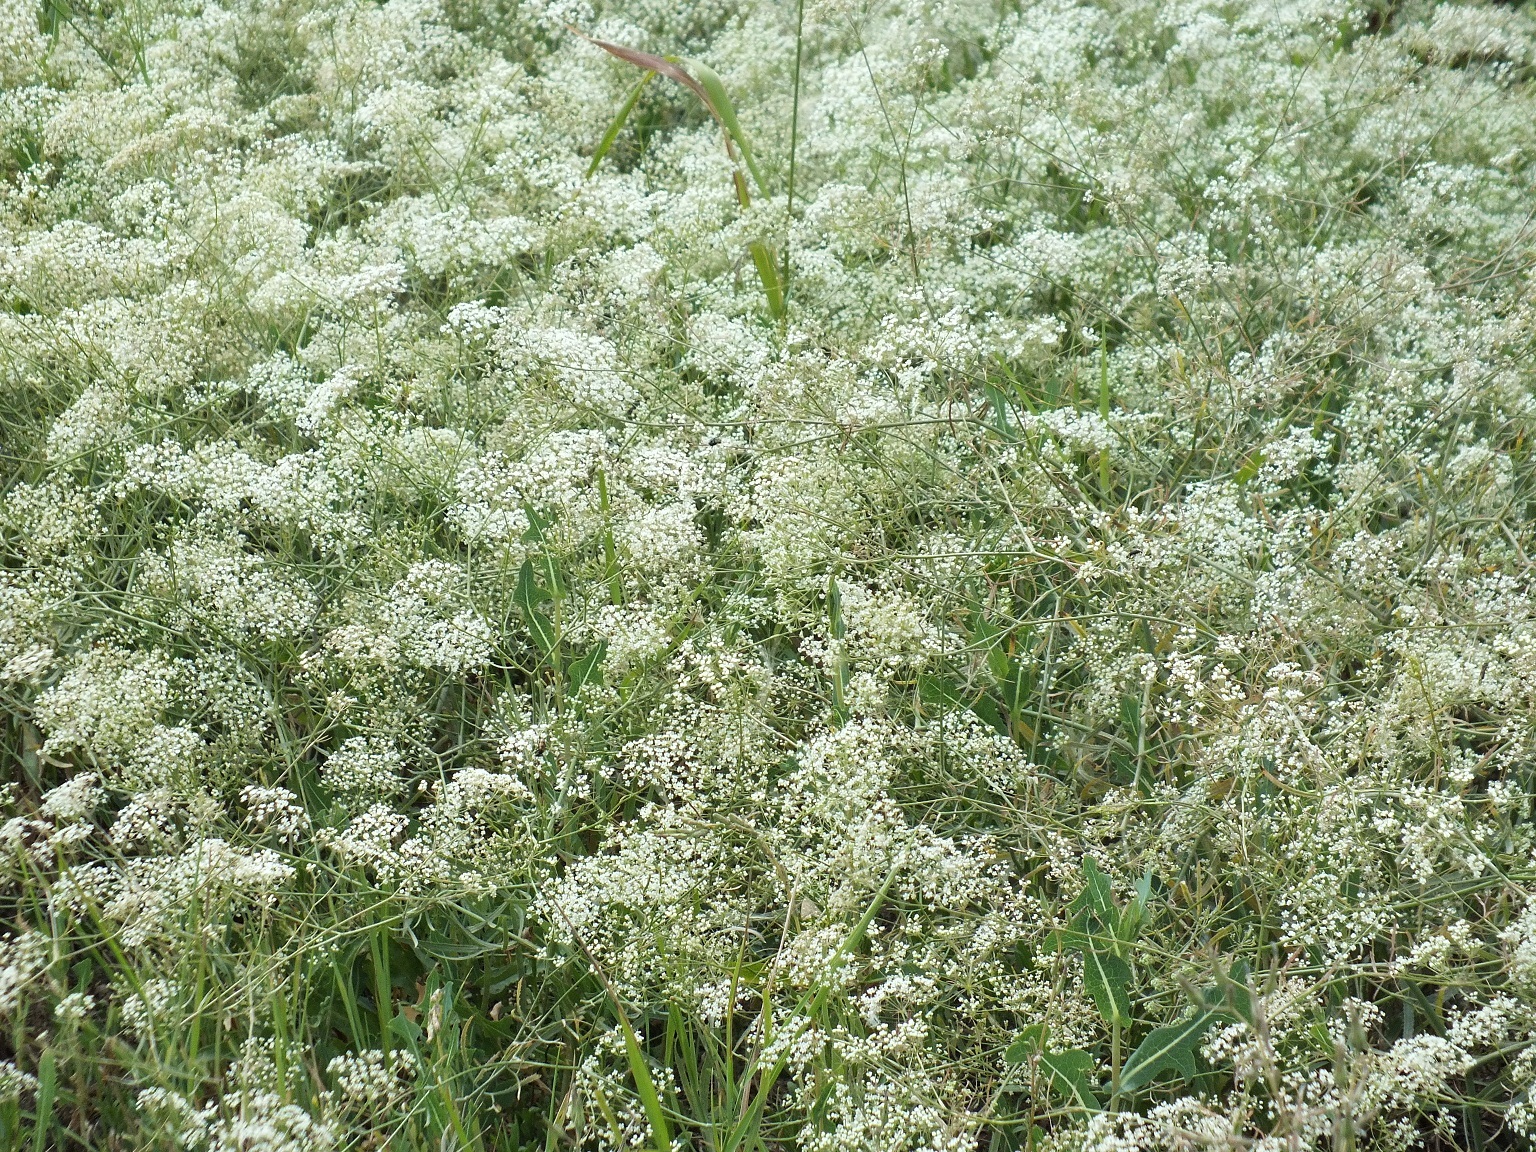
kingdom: Plantae
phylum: Tracheophyta
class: Magnoliopsida
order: Apiales
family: Apiaceae
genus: Falcaria
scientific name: Falcaria vulgaris
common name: Longleaf
